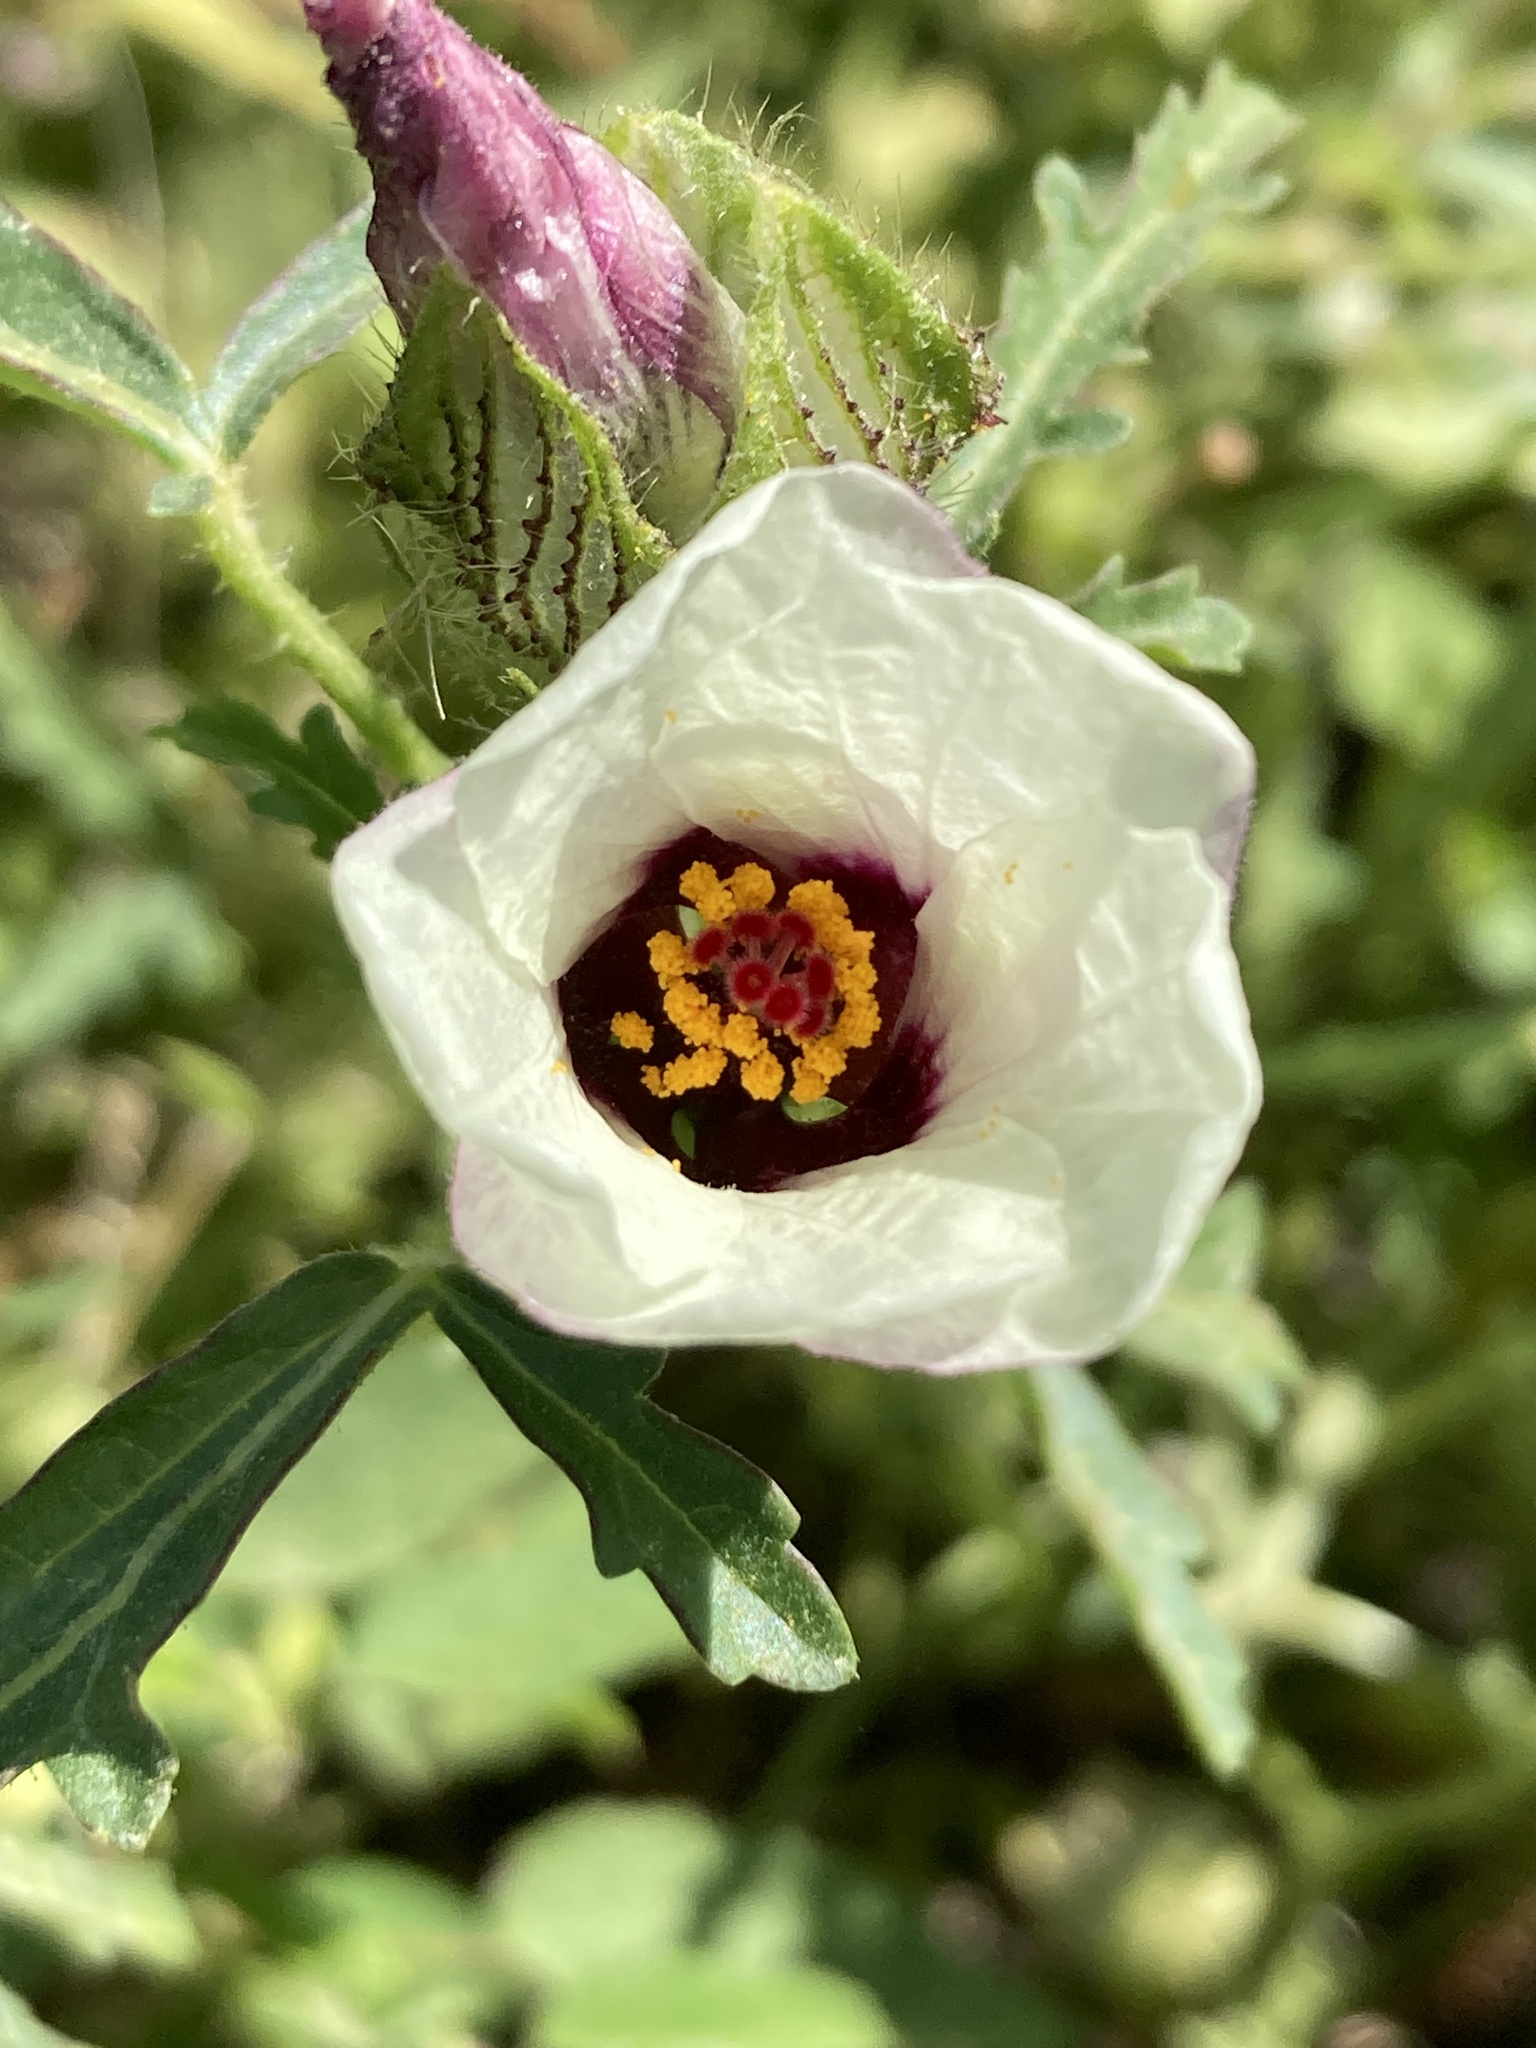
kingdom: Plantae
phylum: Tracheophyta
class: Magnoliopsida
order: Malvales
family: Malvaceae
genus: Hibiscus
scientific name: Hibiscus trionum
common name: Bladder ketmia
